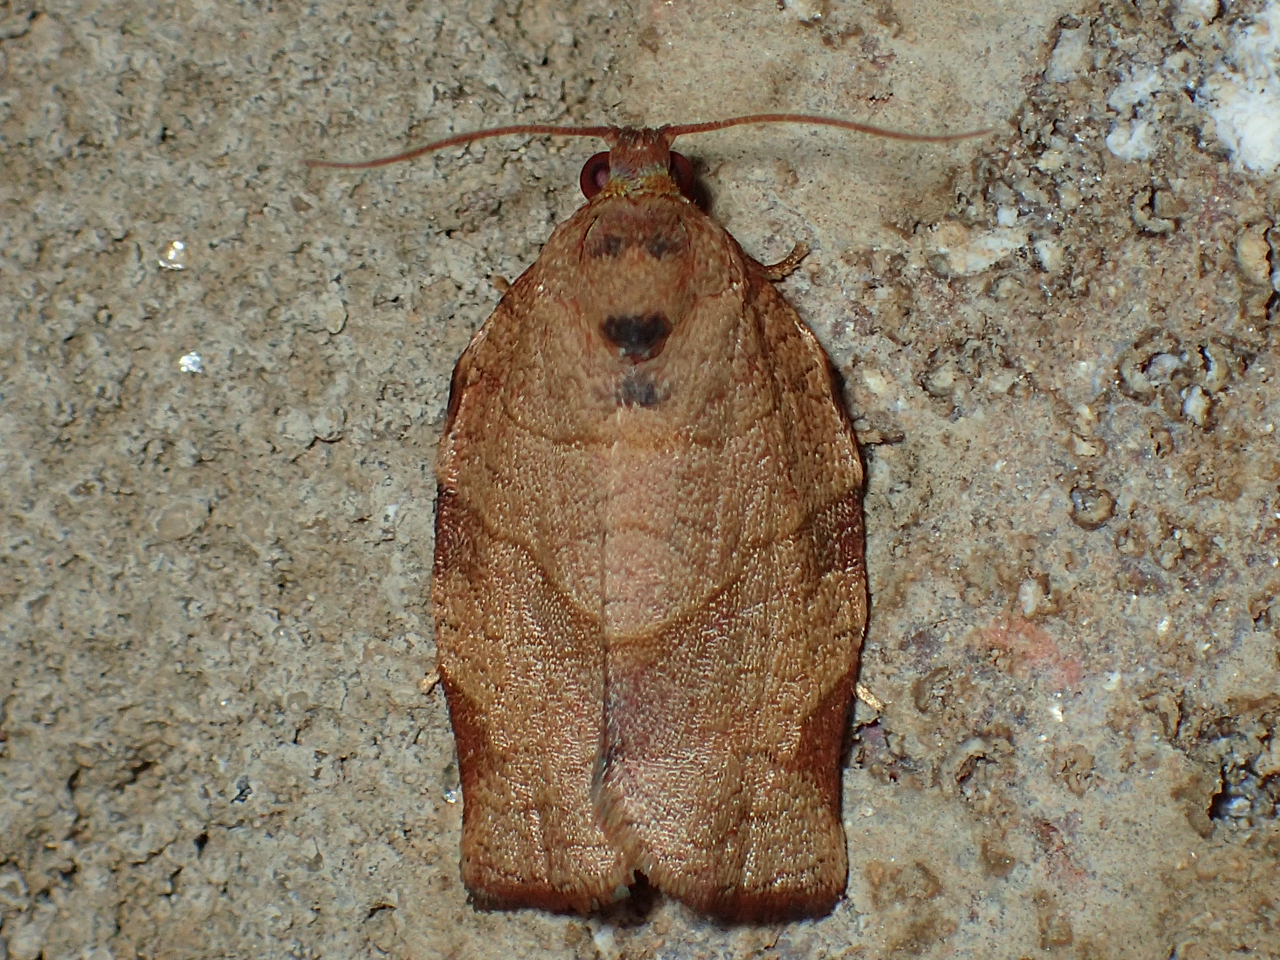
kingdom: Animalia
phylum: Arthropoda
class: Insecta
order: Lepidoptera
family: Tortricidae
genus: Choristoneura
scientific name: Choristoneura rosaceana
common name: Oblique-banded leafroller moth
